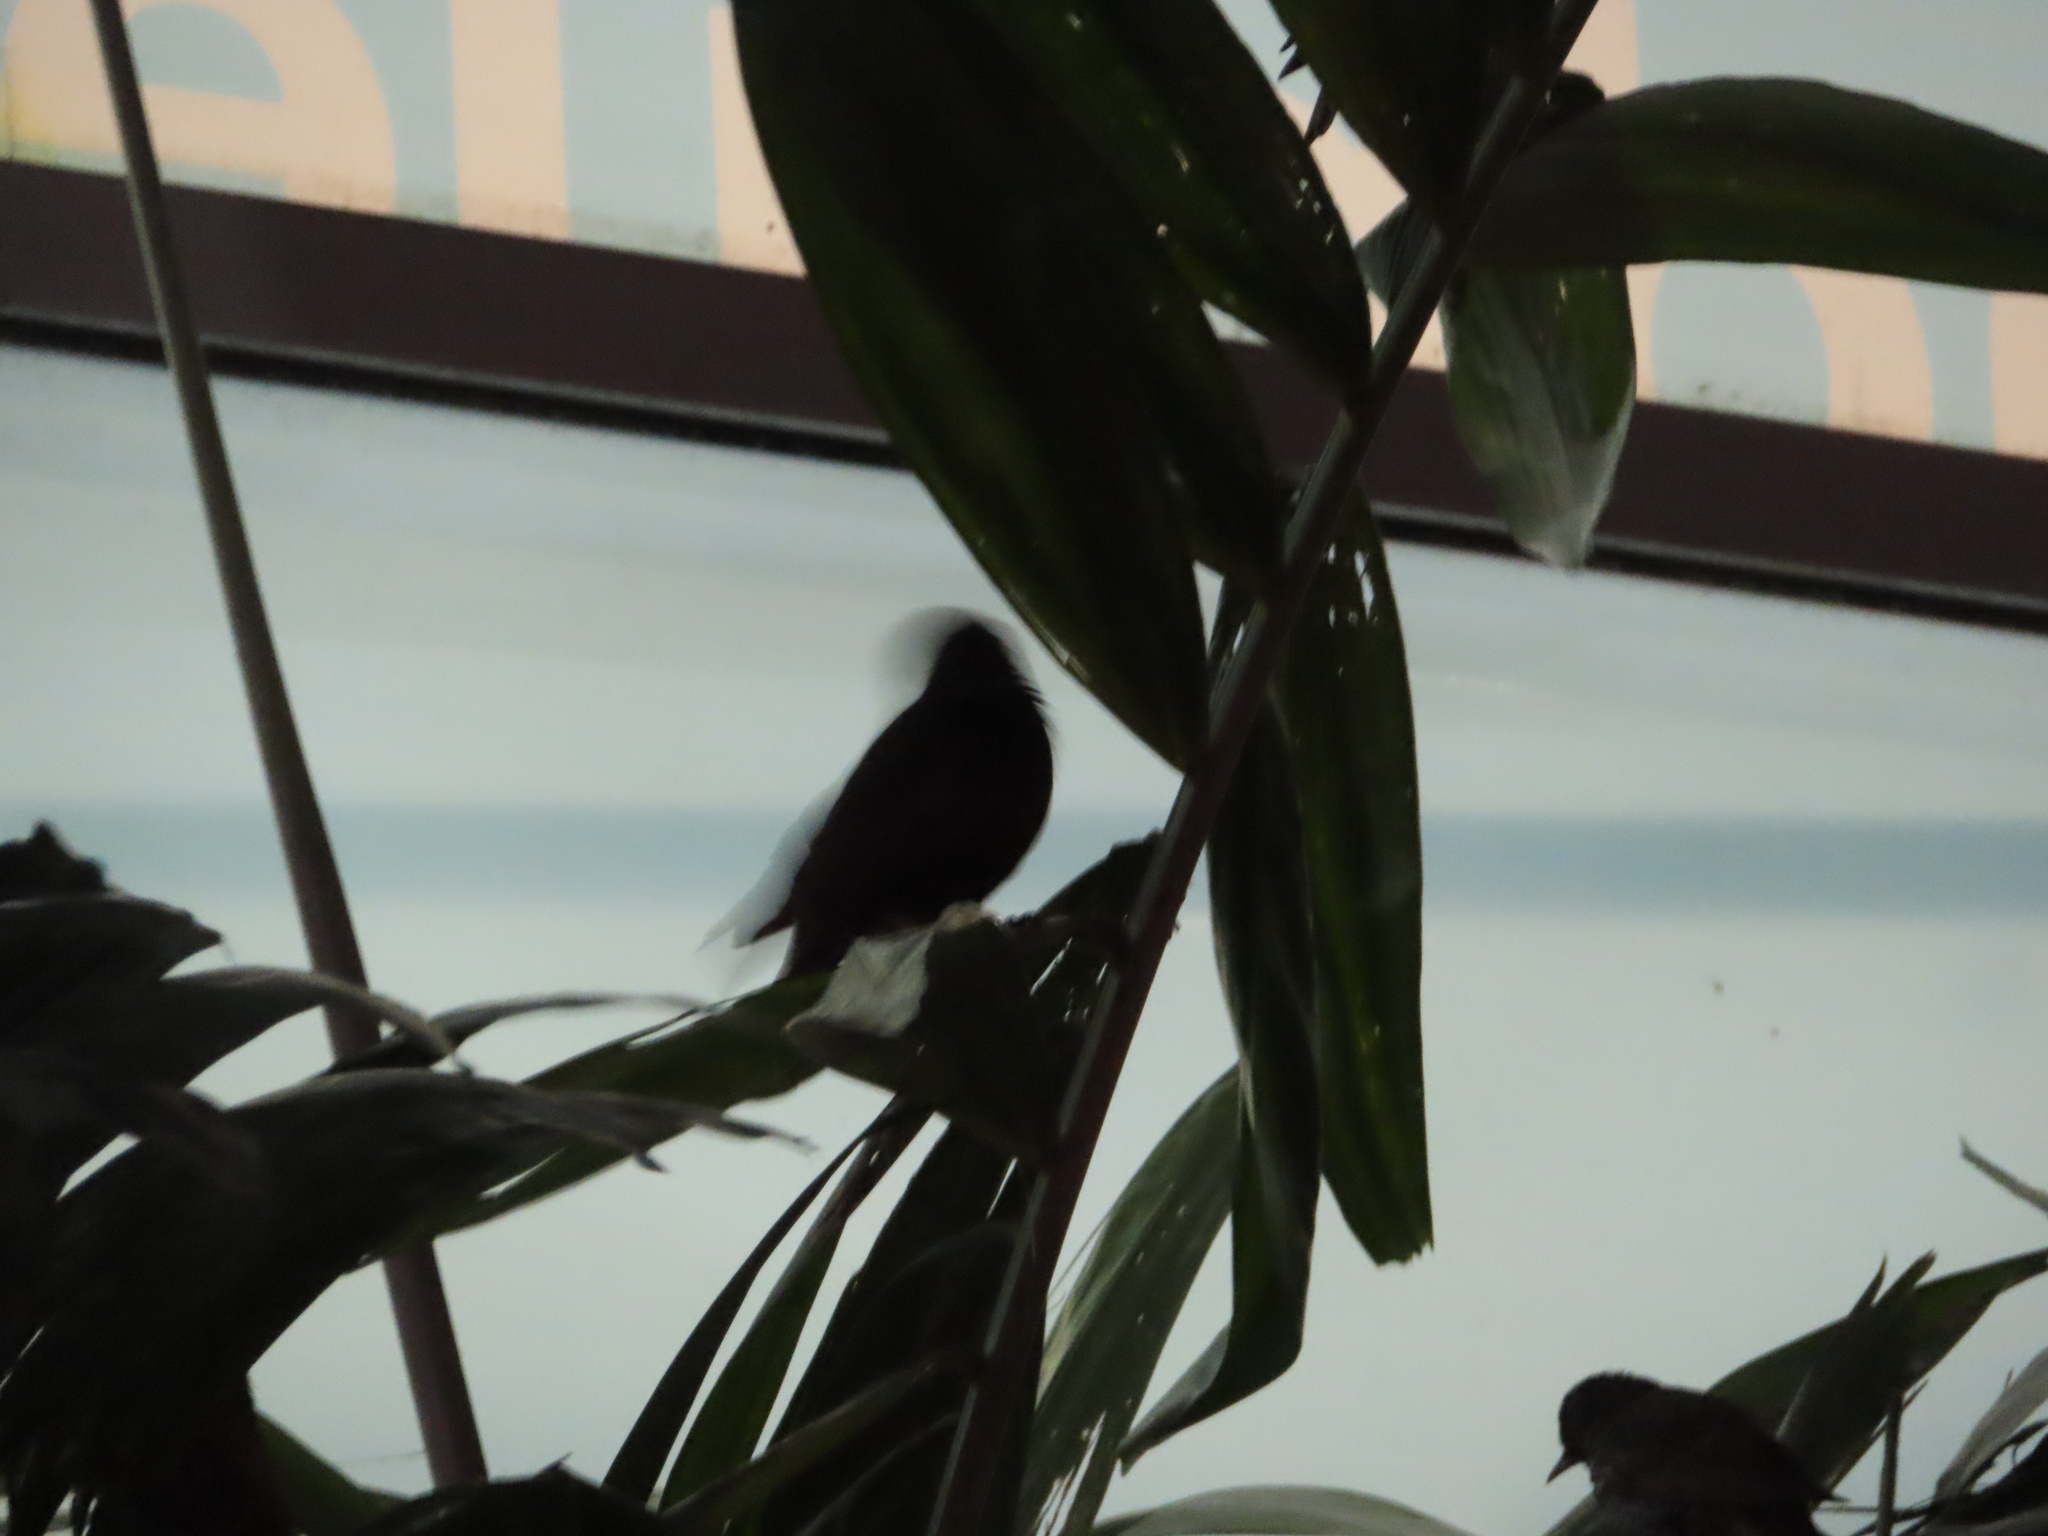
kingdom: Animalia
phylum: Chordata
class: Aves
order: Passeriformes
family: Sturnidae
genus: Sturnus
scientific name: Sturnus vulgaris
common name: Common starling
